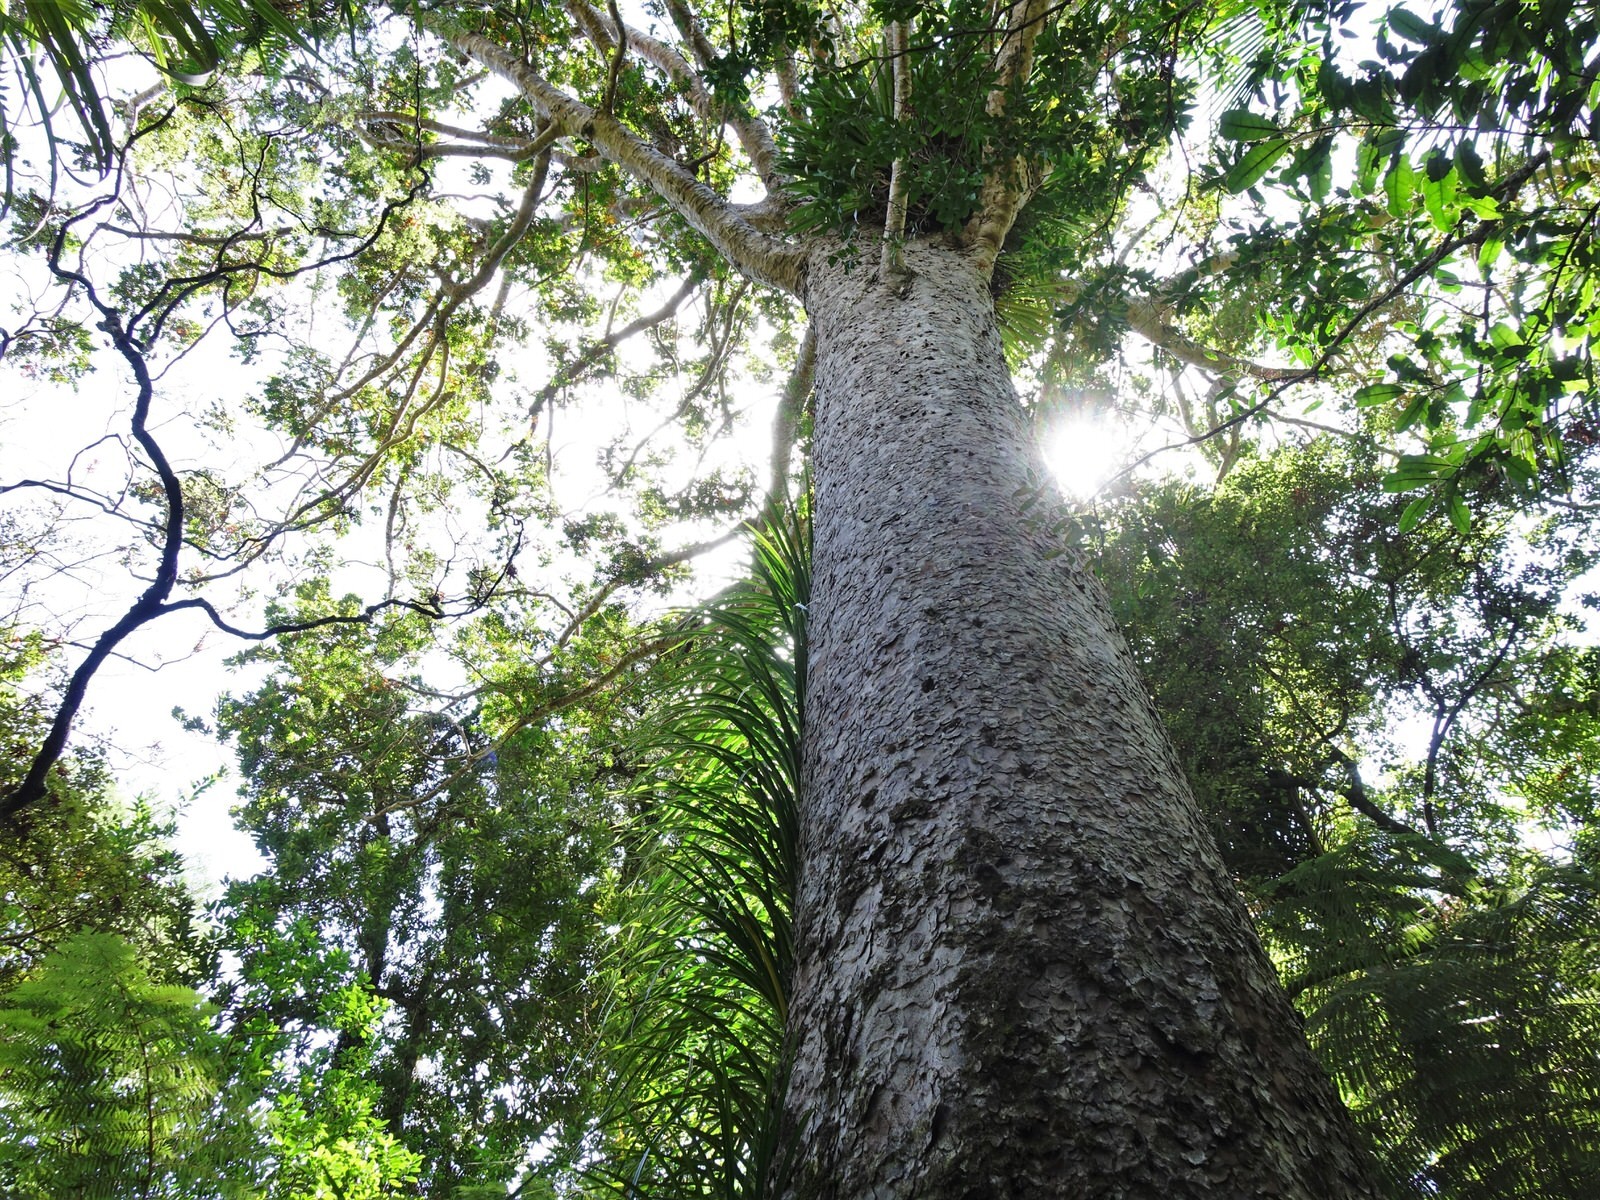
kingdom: Plantae
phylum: Tracheophyta
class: Pinopsida
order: Pinales
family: Araucariaceae
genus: Agathis
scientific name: Agathis australis
